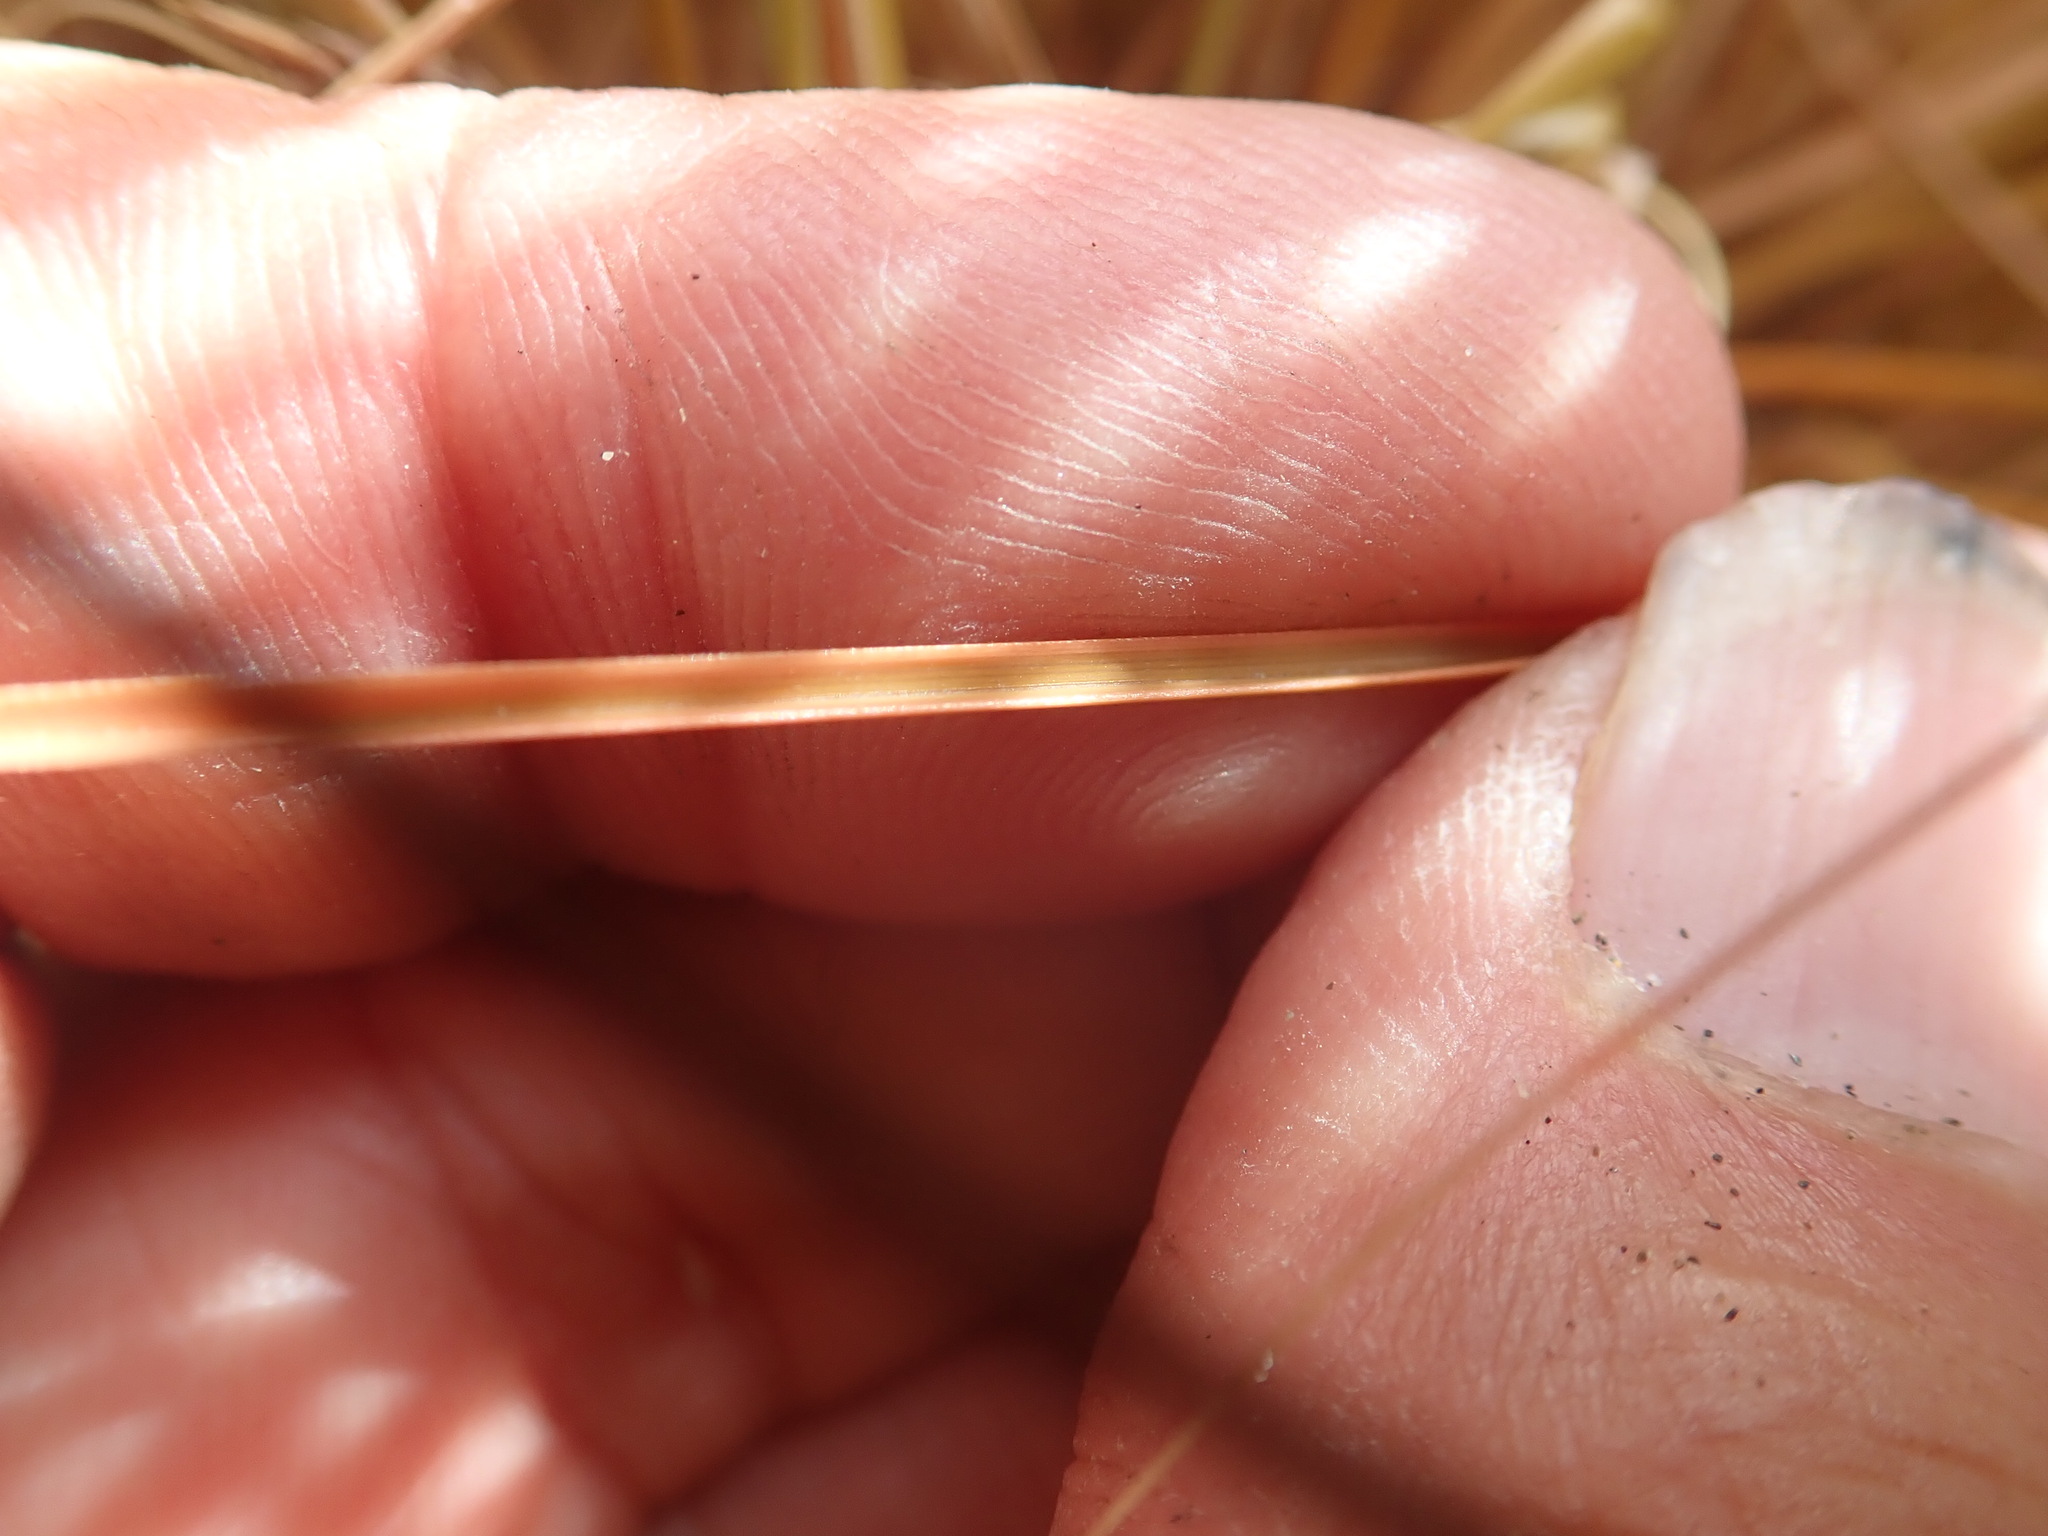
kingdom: Plantae
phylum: Tracheophyta
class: Liliopsida
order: Poales
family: Cyperaceae
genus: Carex
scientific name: Carex testacea
